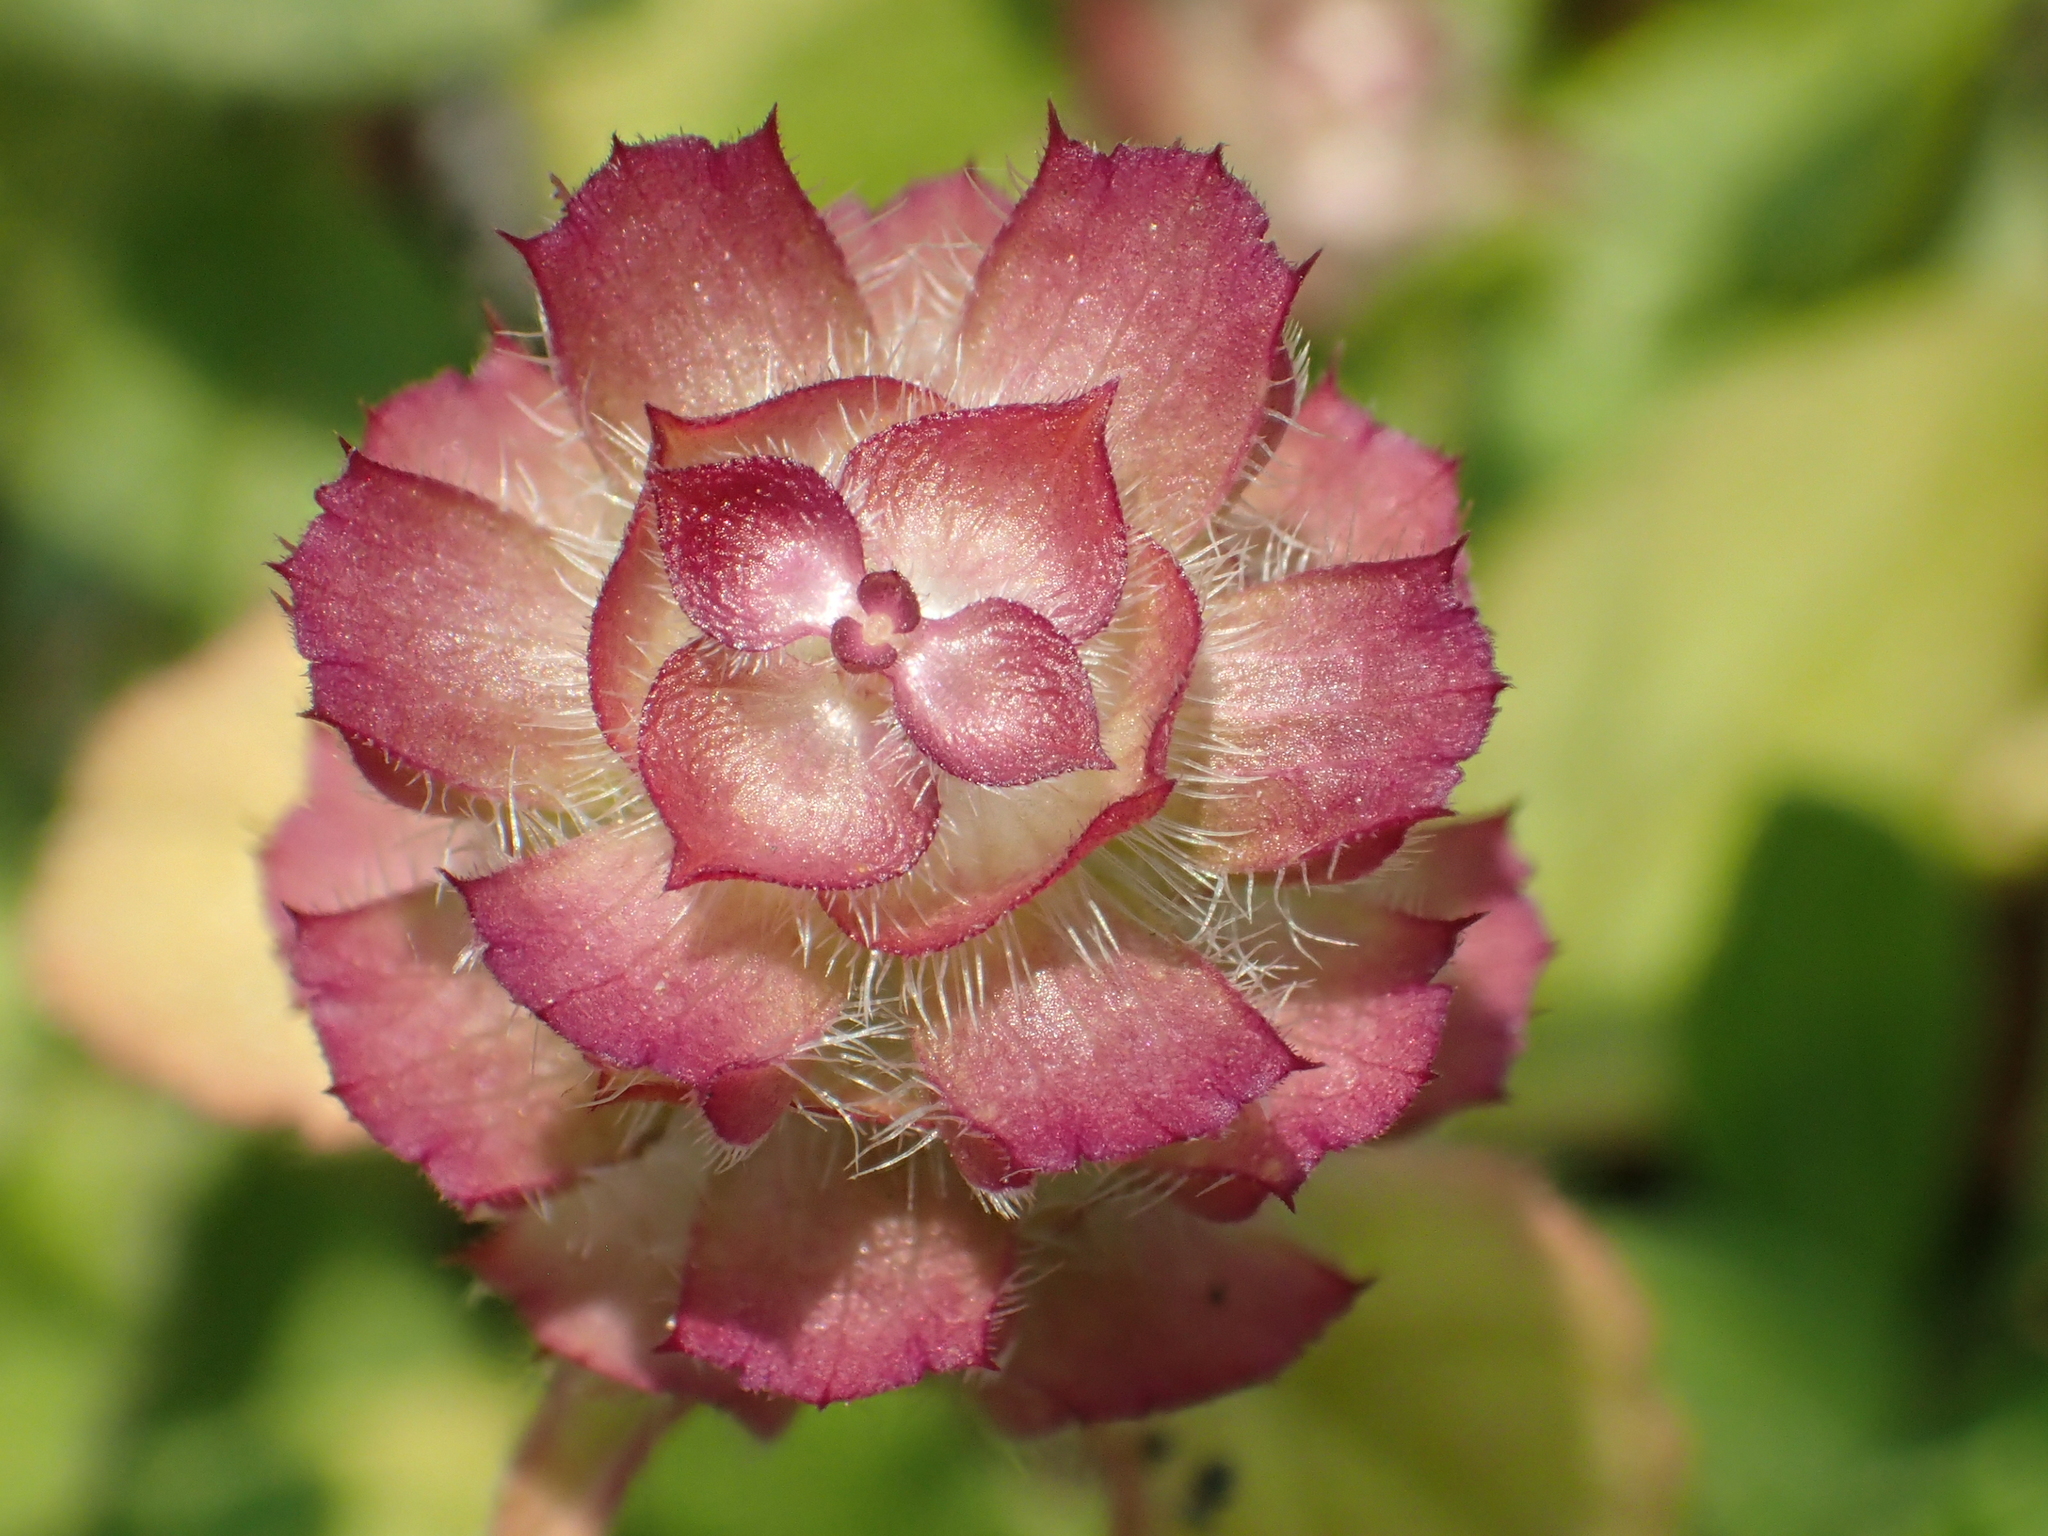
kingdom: Plantae
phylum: Tracheophyta
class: Magnoliopsida
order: Lamiales
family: Lamiaceae
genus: Prunella
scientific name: Prunella vulgaris
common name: Heal-all
